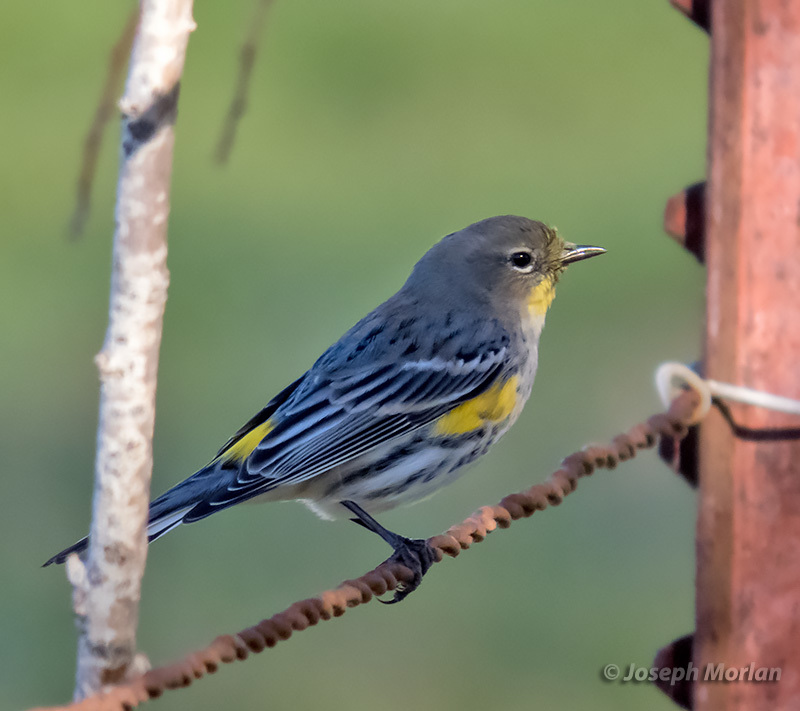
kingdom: Animalia
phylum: Chordata
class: Aves
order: Passeriformes
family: Parulidae
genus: Setophaga
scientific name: Setophaga coronata
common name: Myrtle warbler
